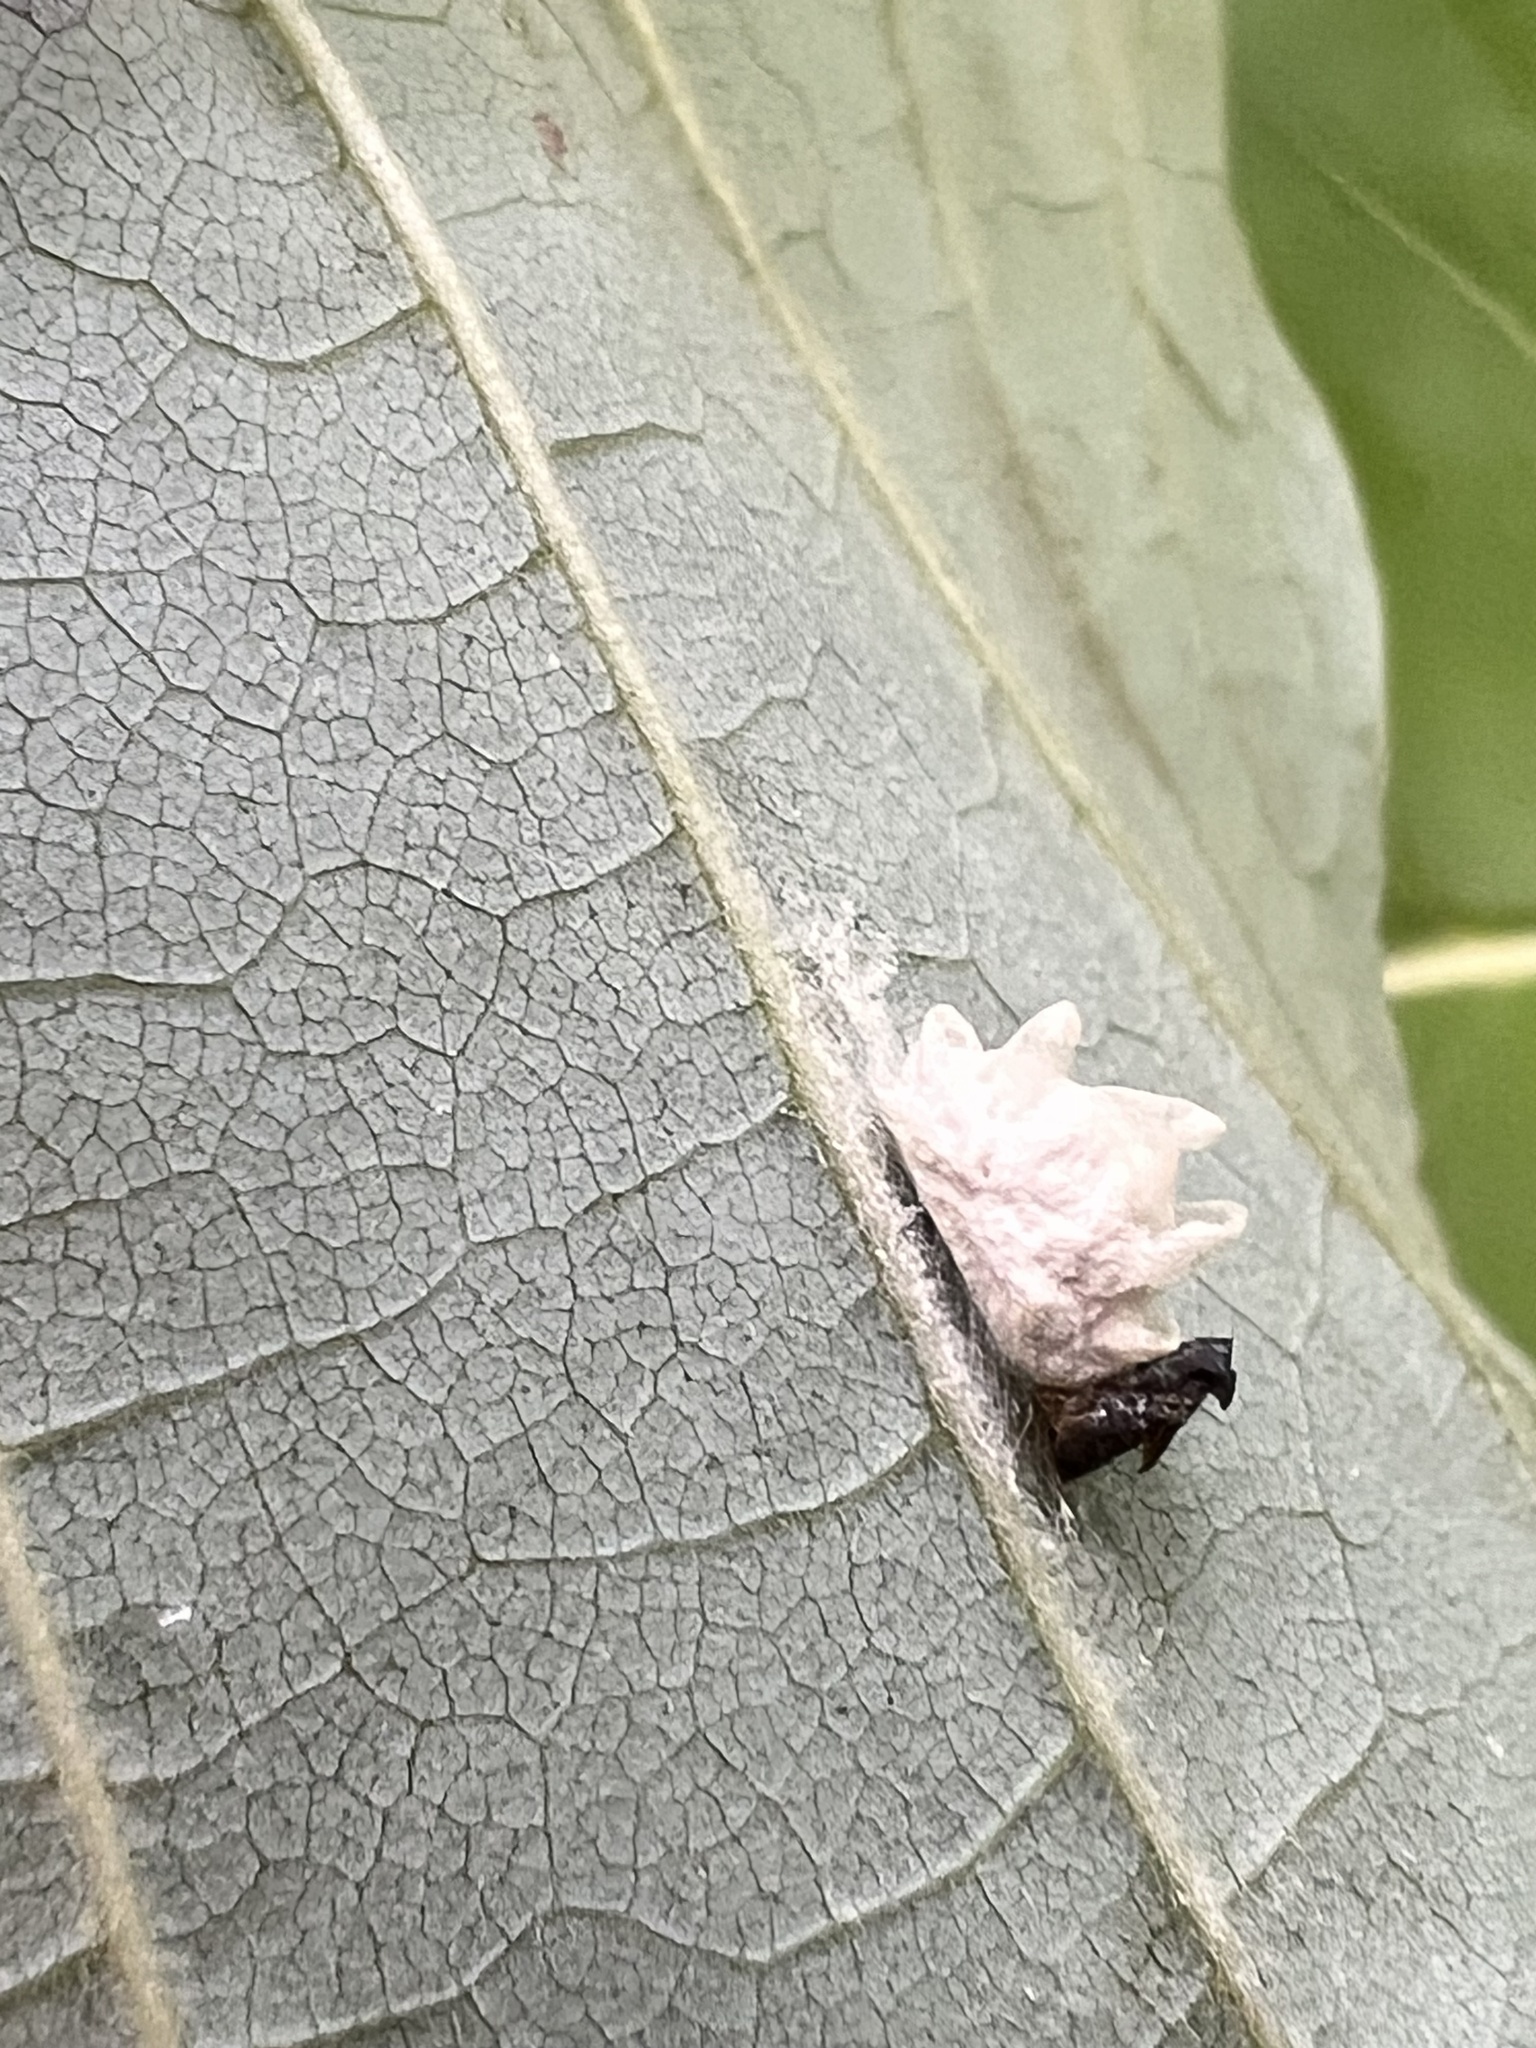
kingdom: Animalia
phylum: Arthropoda
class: Insecta
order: Lepidoptera
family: Epipyropidae
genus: Fulgoraecia
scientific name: Fulgoraecia exigua
